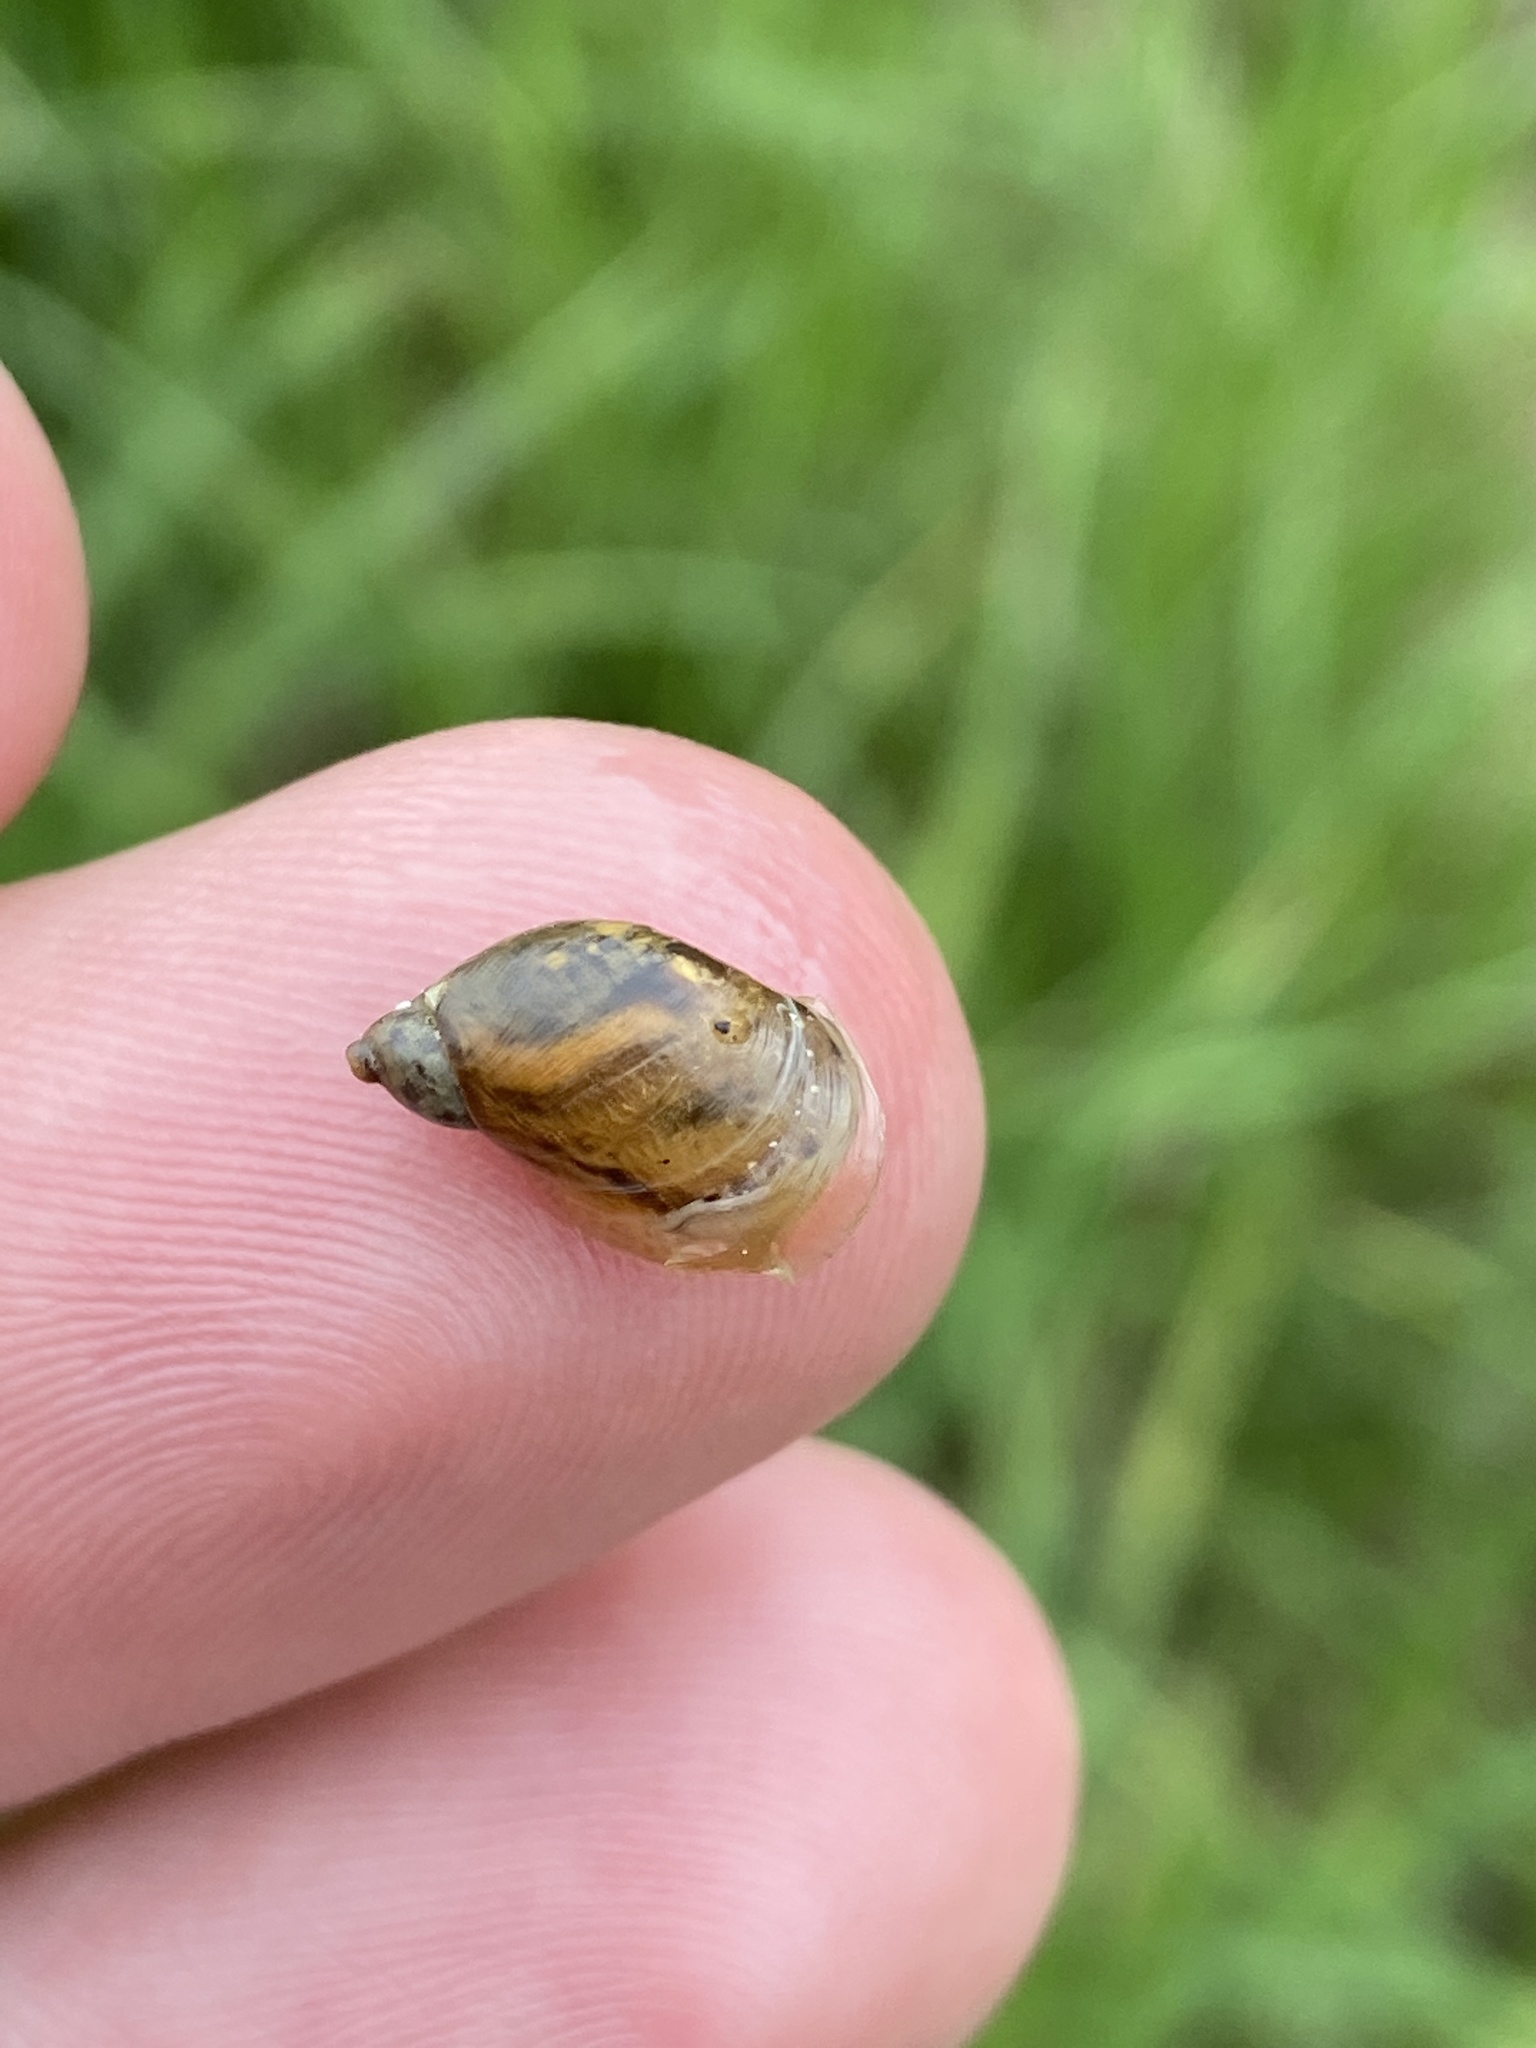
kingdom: Animalia
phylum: Mollusca
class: Gastropoda
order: Stylommatophora
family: Succineidae
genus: Succinea
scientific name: Succinea putris
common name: European ambersnail
